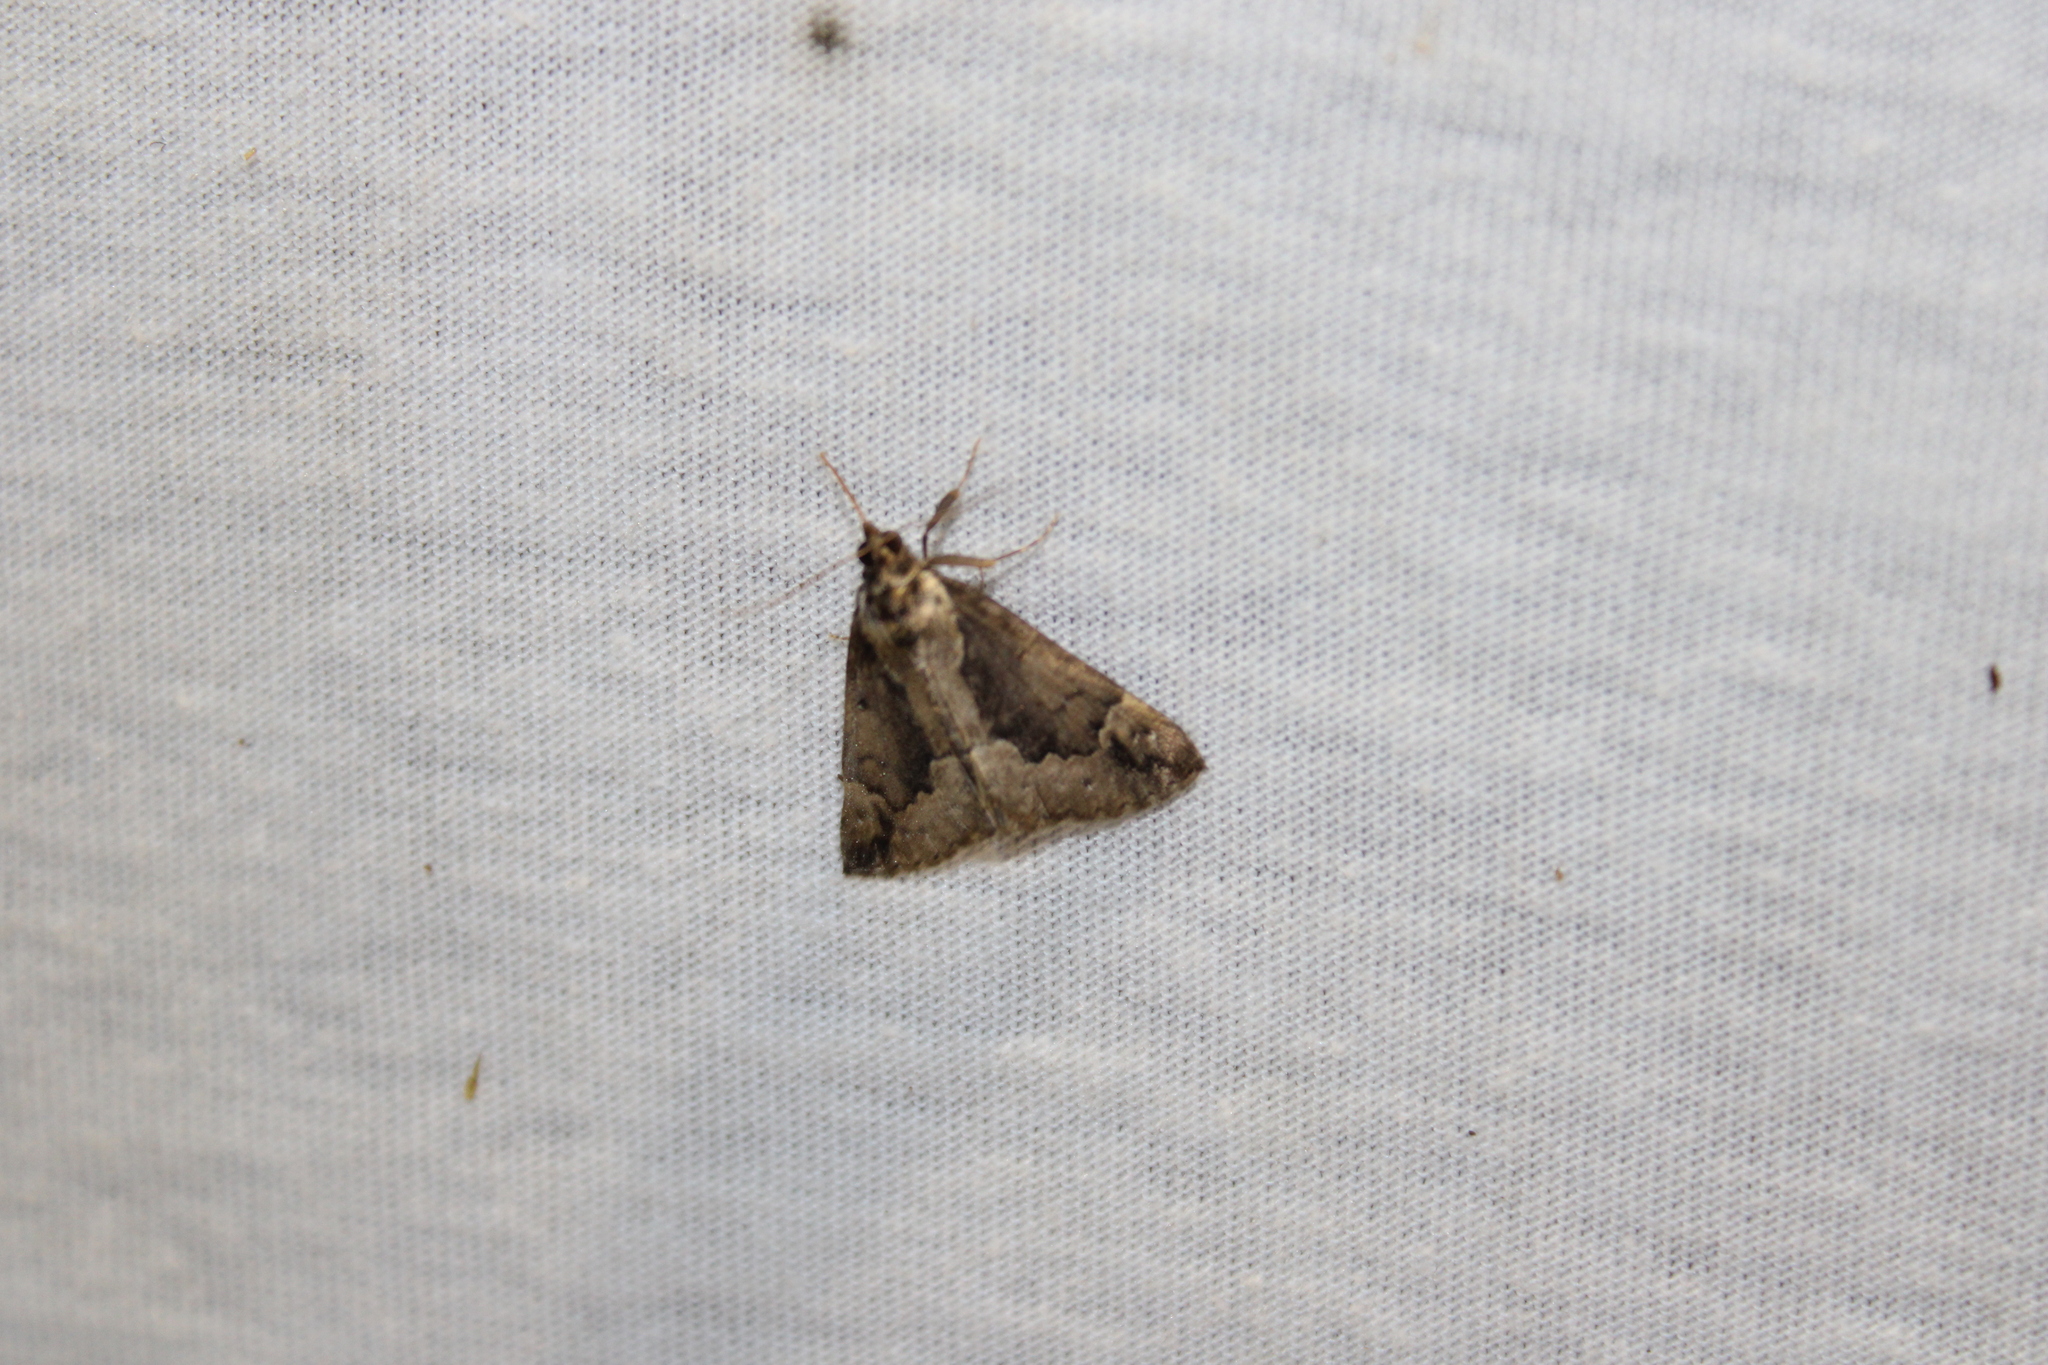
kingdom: Animalia
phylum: Arthropoda
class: Insecta
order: Lepidoptera
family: Erebidae
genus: Hypena
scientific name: Hypena baltimoralis
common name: Baltimore snout
